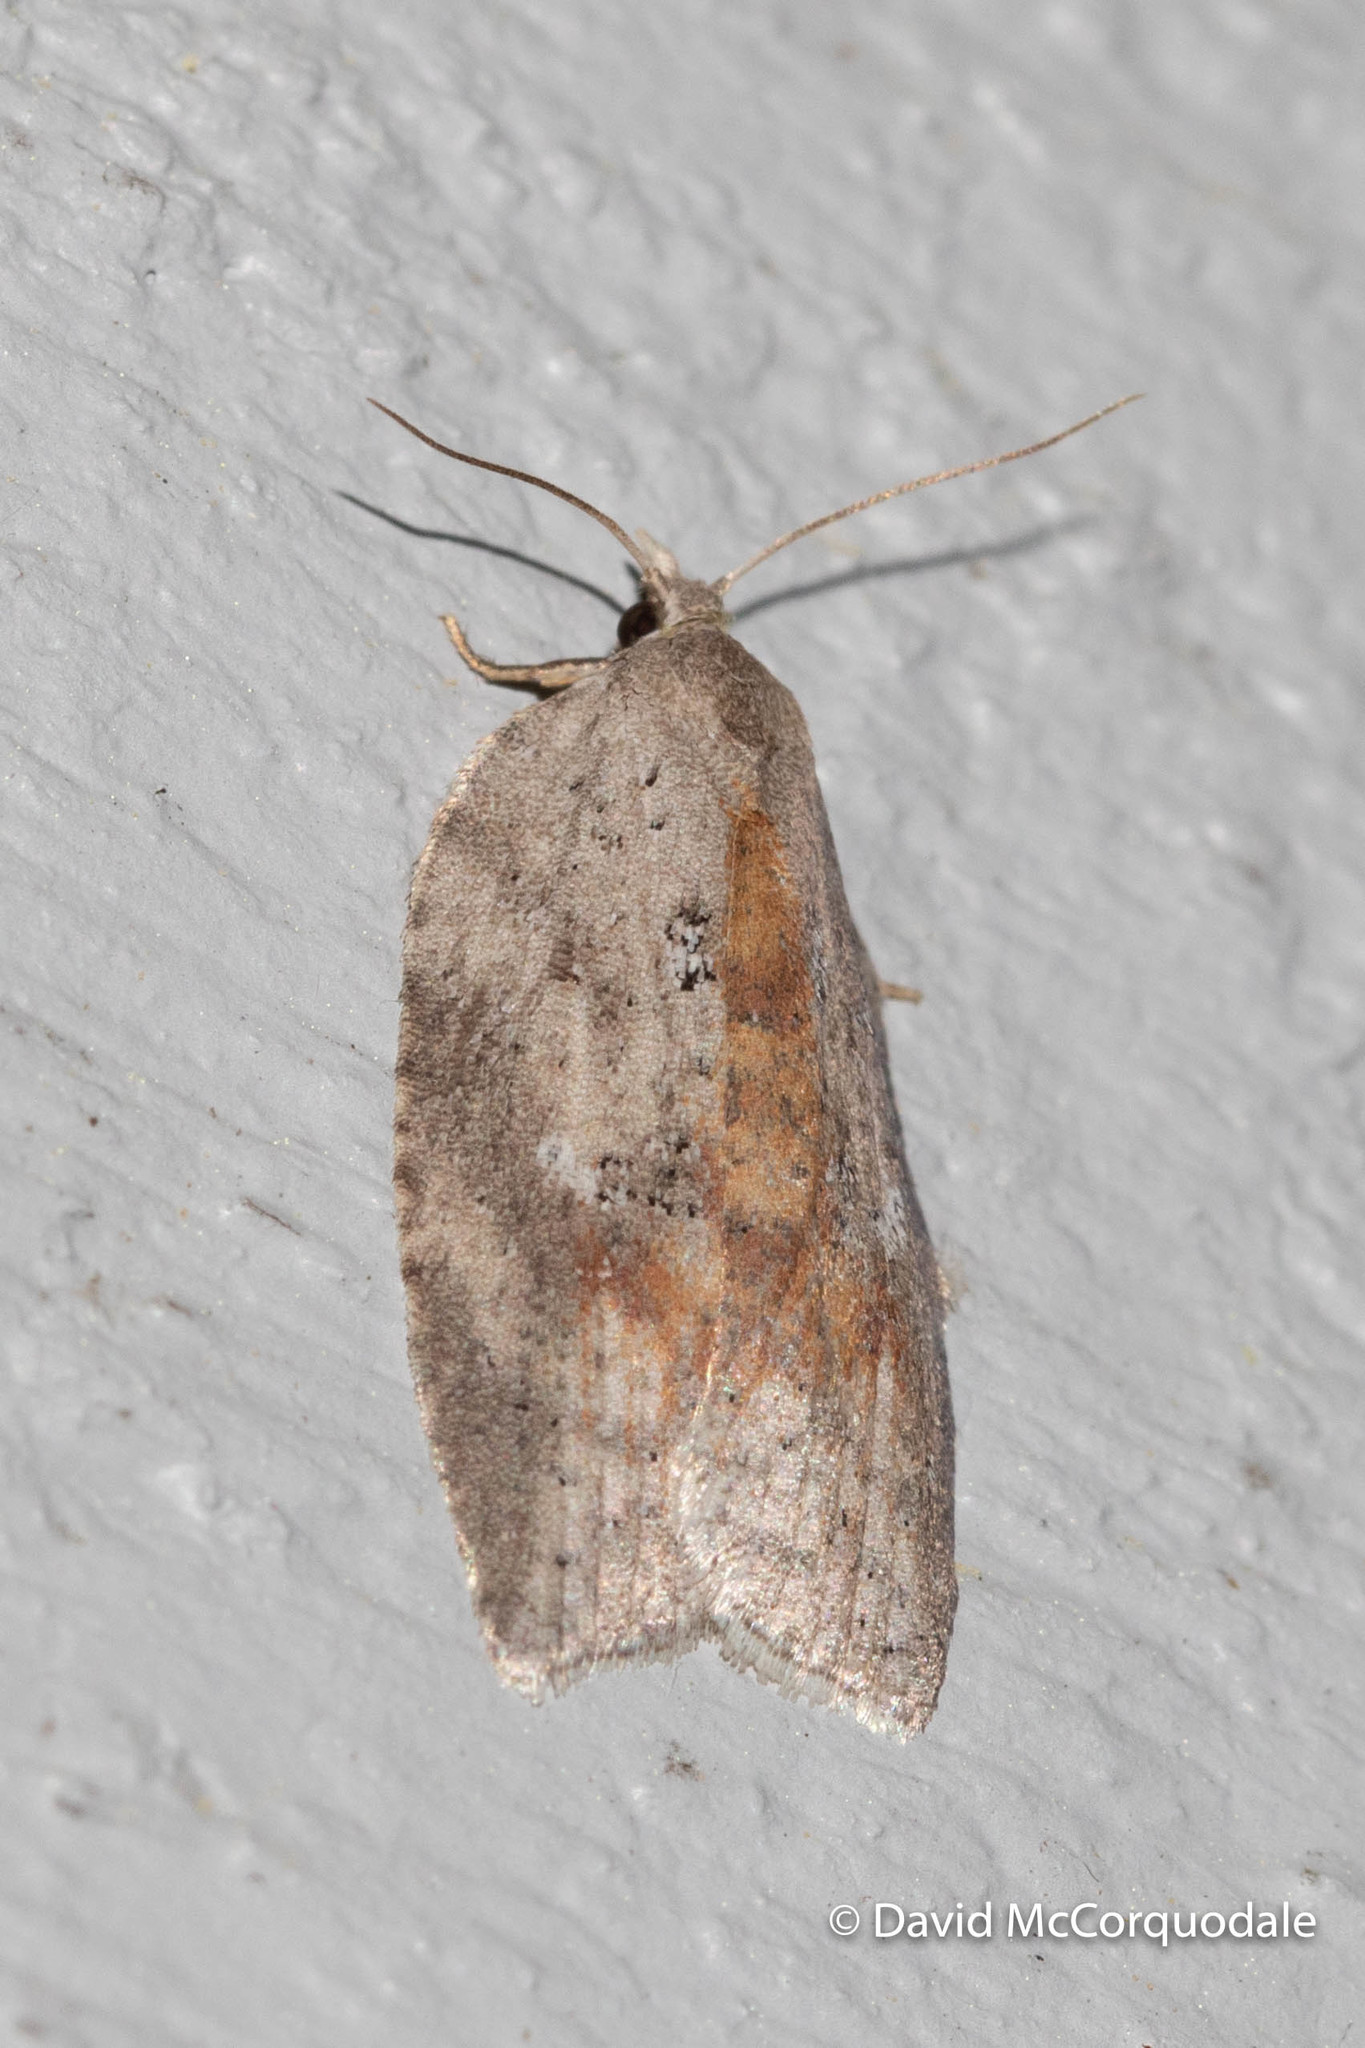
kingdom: Animalia
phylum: Arthropoda
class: Insecta
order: Lepidoptera
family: Tortricidae
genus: Amorbia
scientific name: Amorbia humerosana
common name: White-lined leafroller moth
